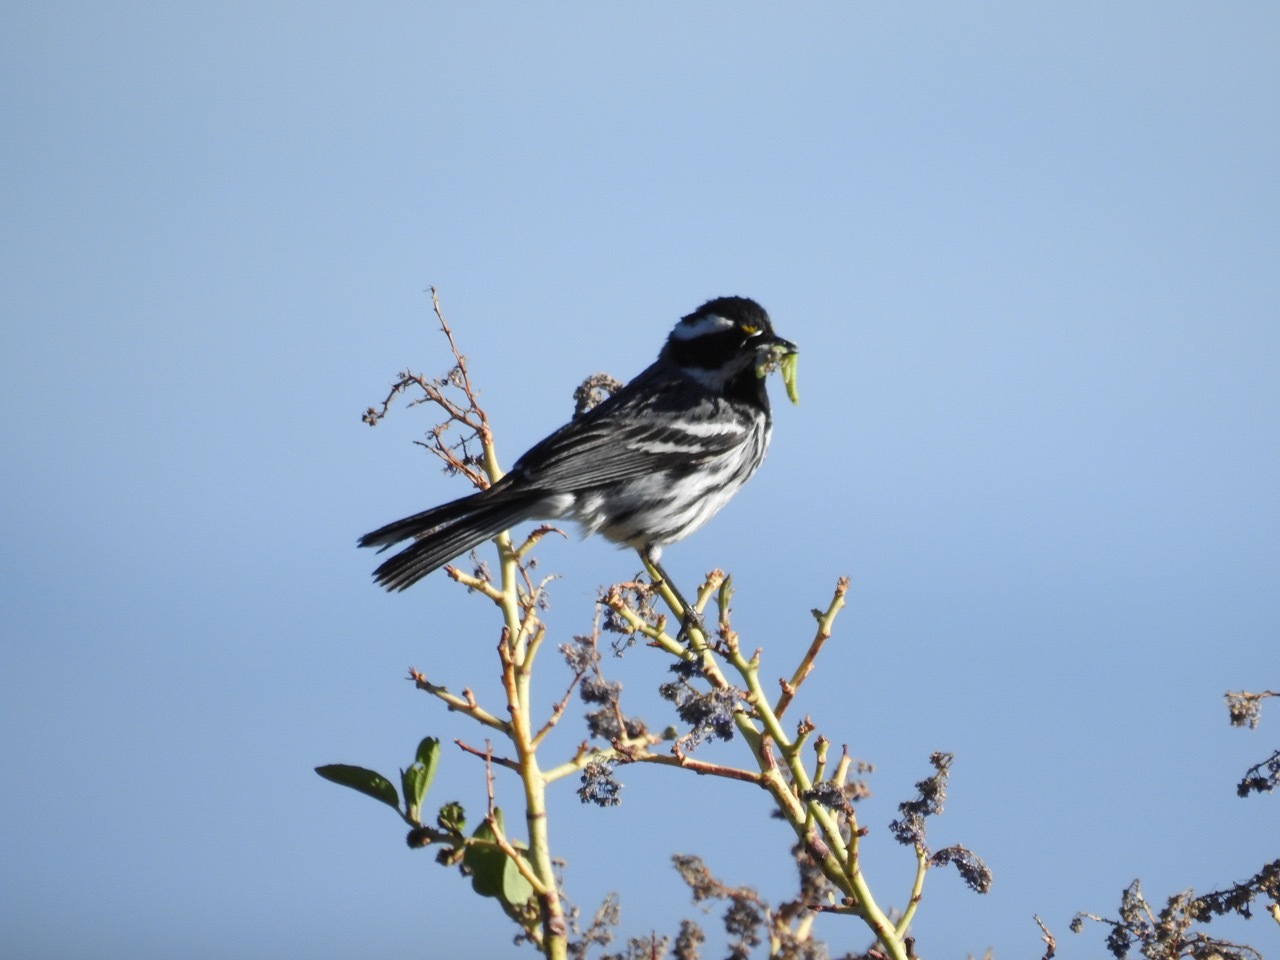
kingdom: Animalia
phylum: Chordata
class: Aves
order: Passeriformes
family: Parulidae
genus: Setophaga
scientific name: Setophaga nigrescens
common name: Black-throated gray warbler
